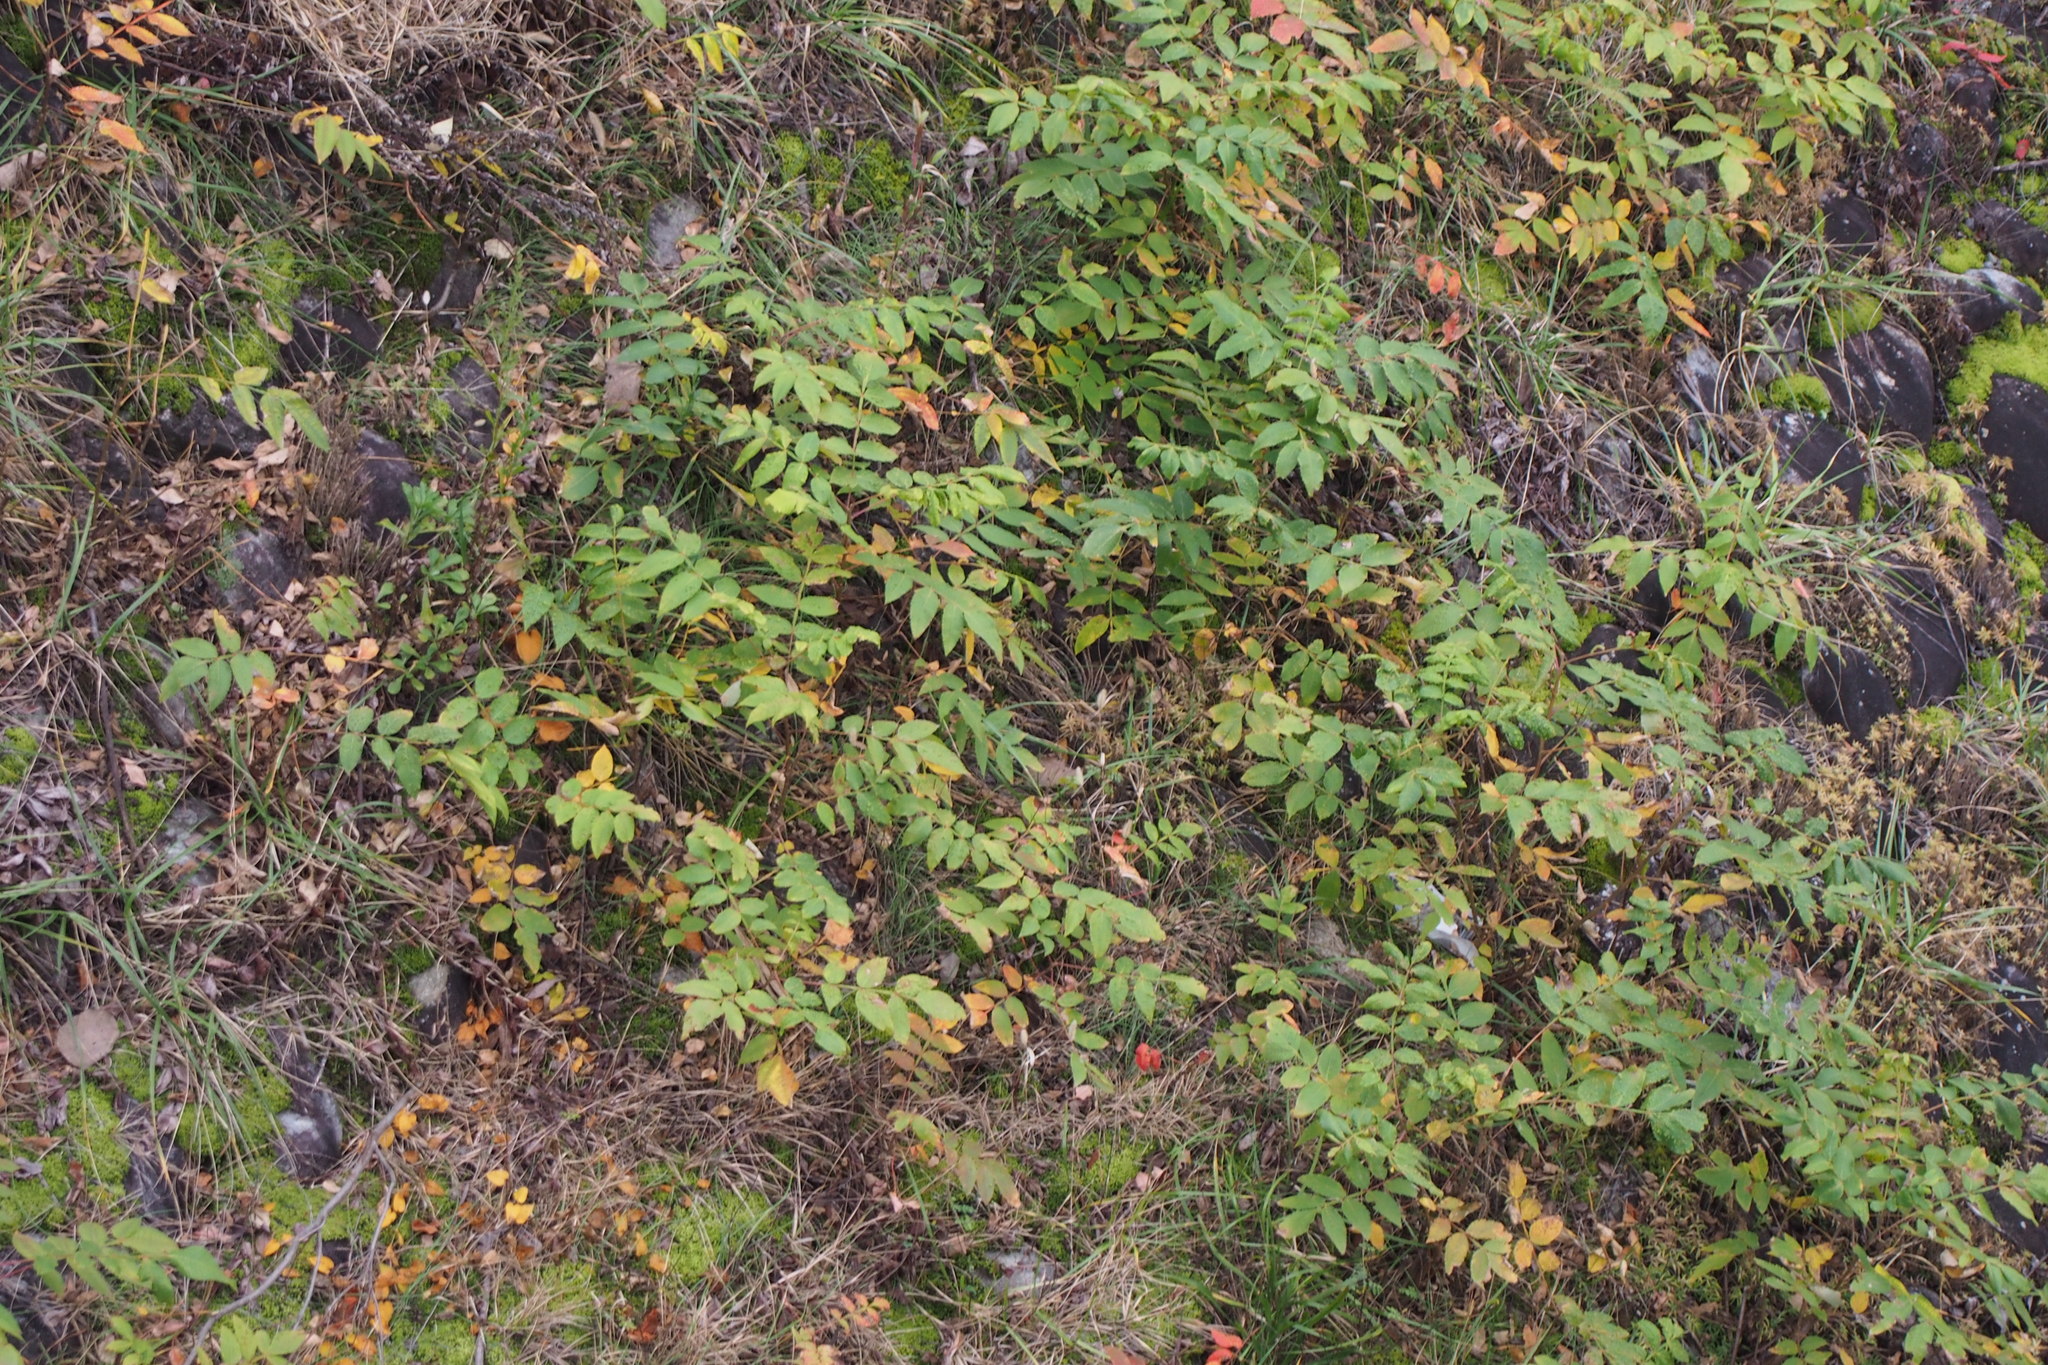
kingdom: Plantae
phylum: Tracheophyta
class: Magnoliopsida
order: Sapindales
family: Anacardiaceae
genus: Rhus
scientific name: Rhus chinensis
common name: Chinese gall
